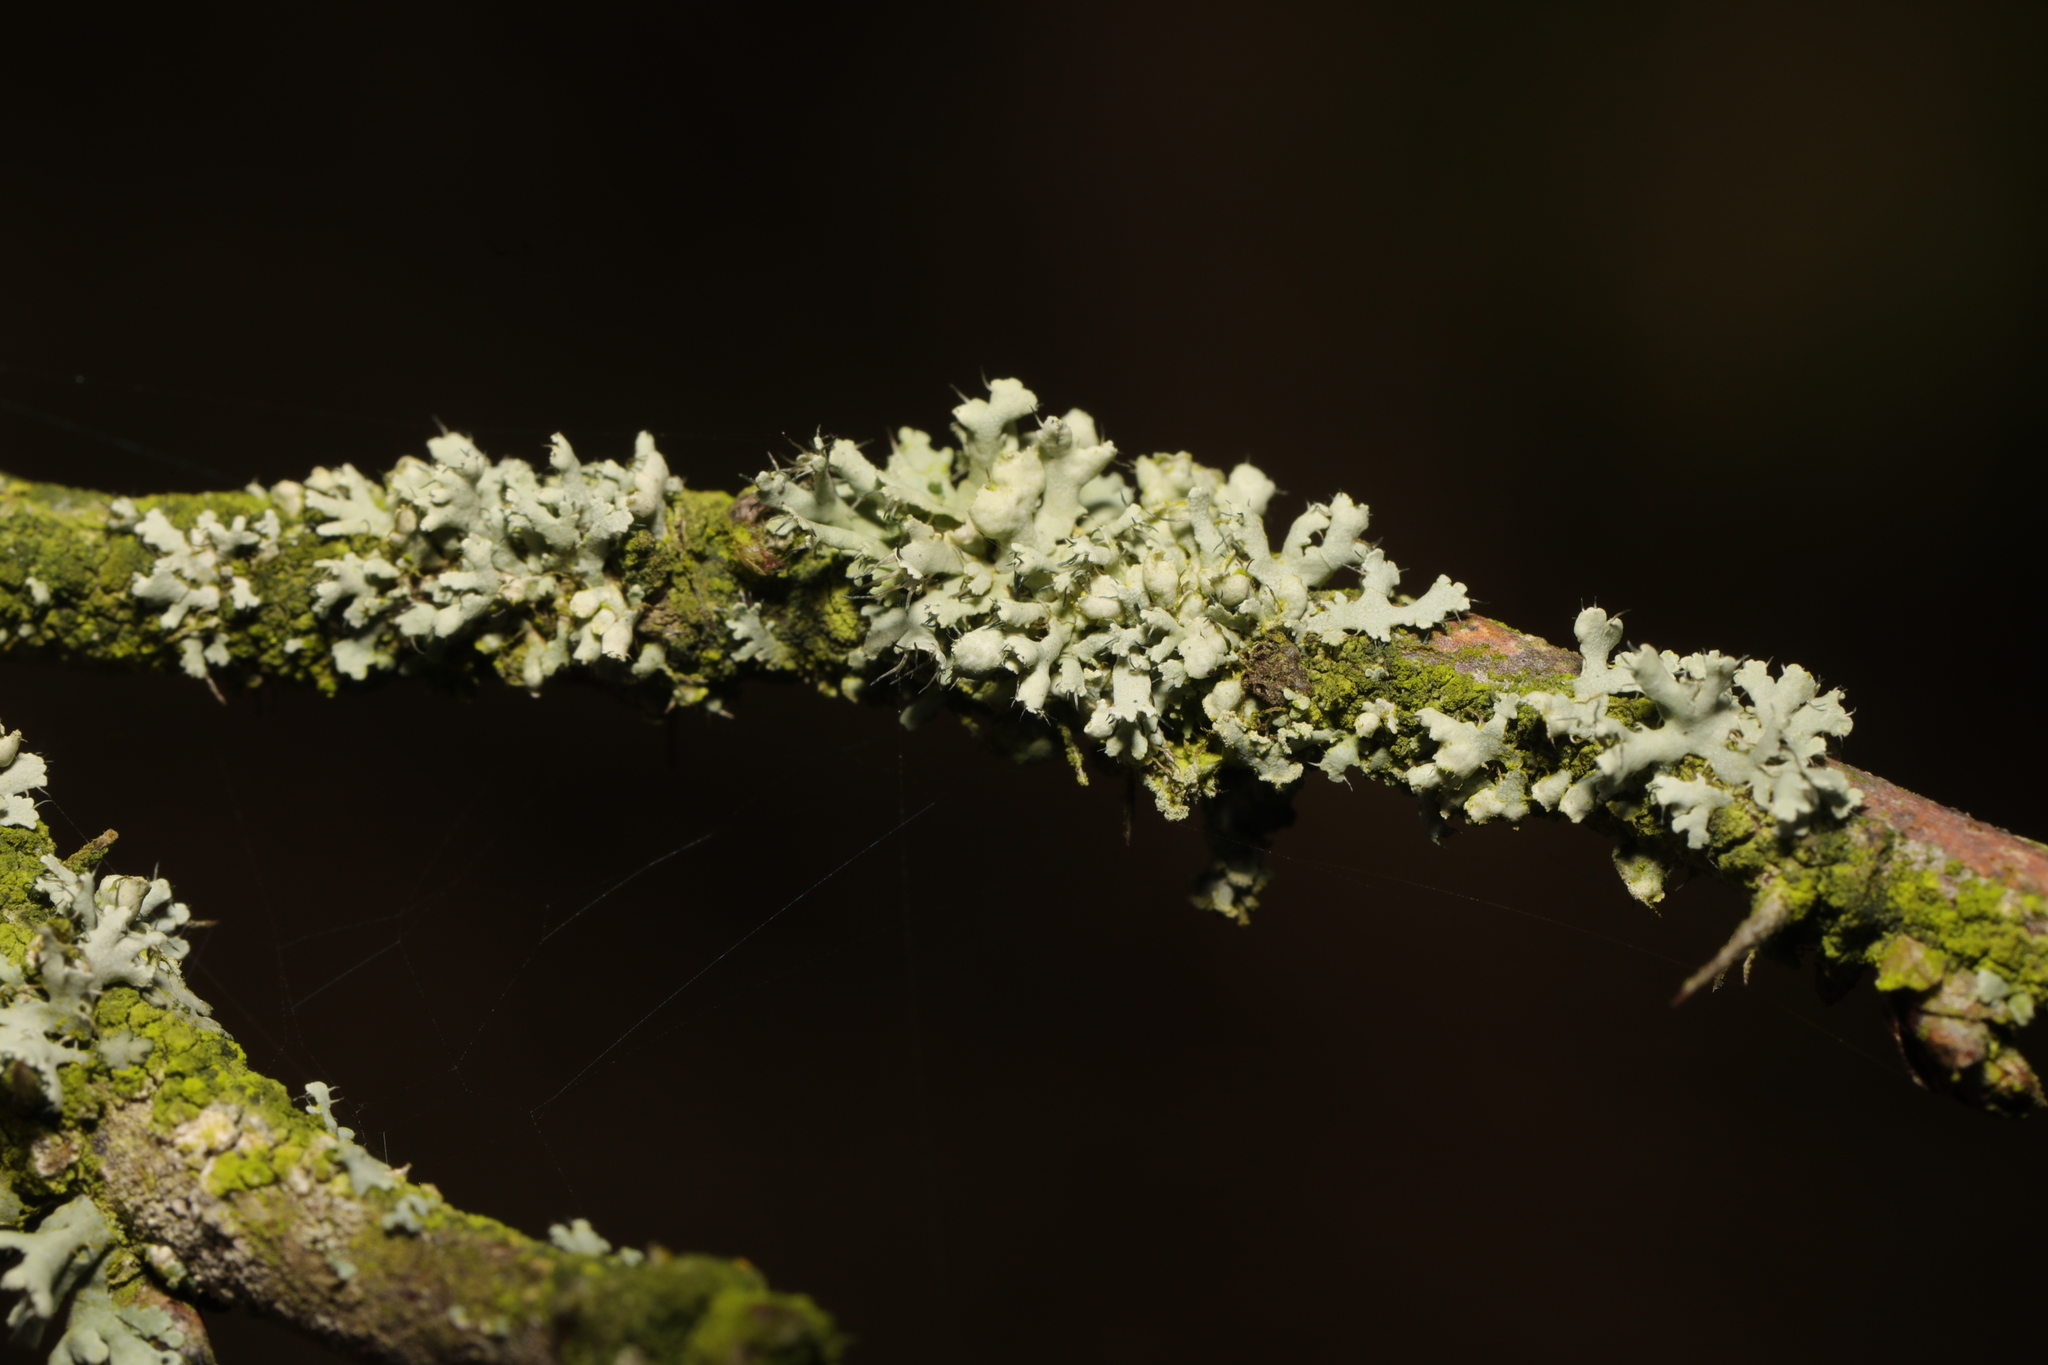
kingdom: Fungi
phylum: Ascomycota
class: Lecanoromycetes
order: Caliciales
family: Physciaceae
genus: Physcia
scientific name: Physcia adscendens
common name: Hooded rosette lichen
